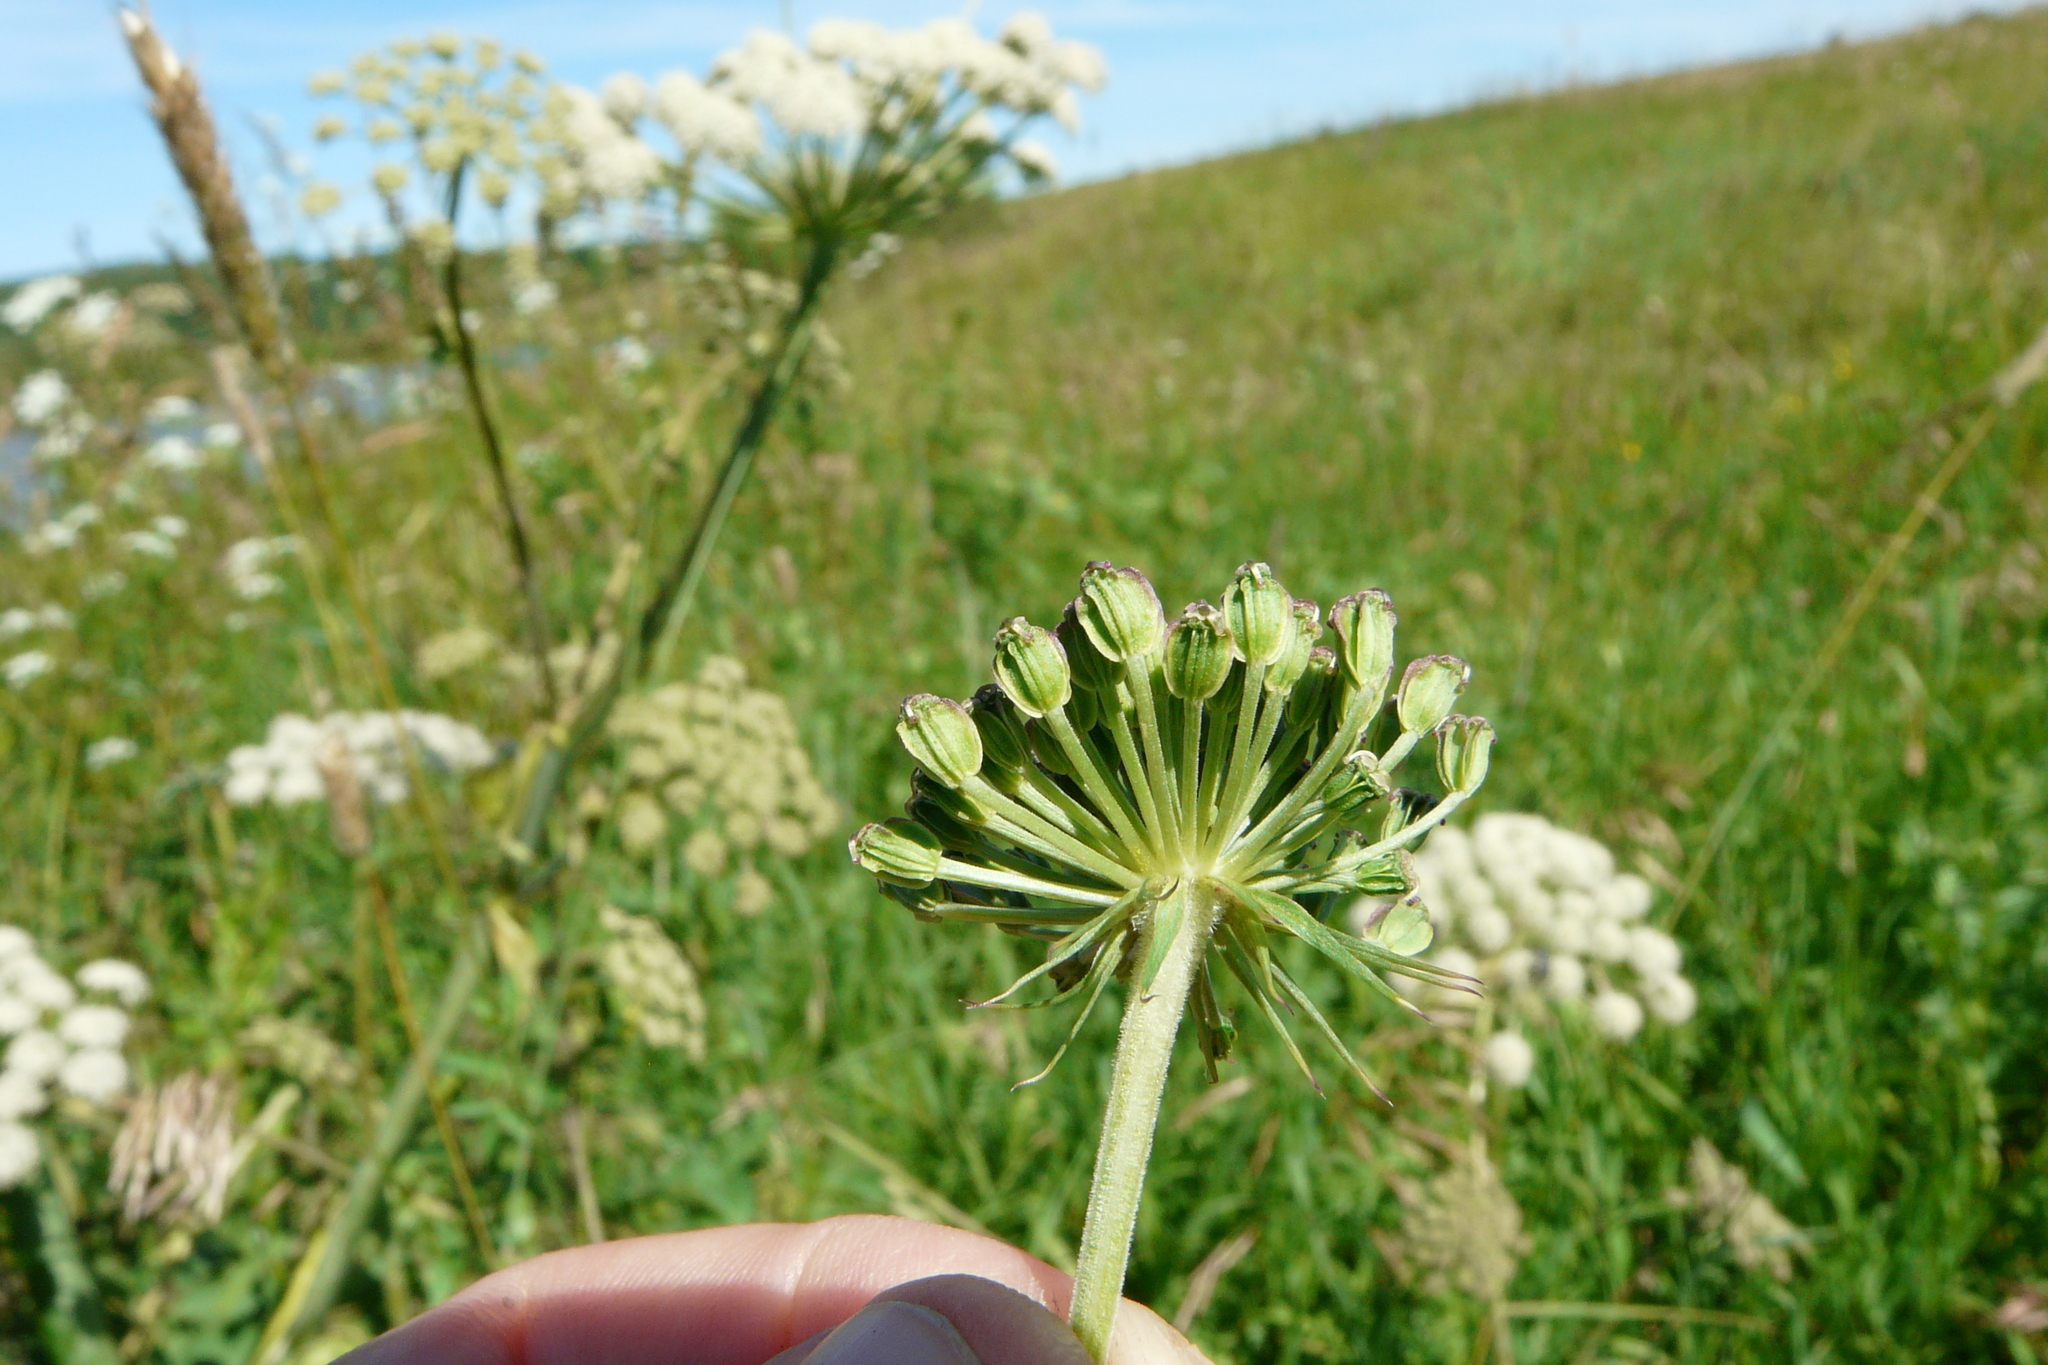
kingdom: Plantae
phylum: Tracheophyta
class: Magnoliopsida
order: Apiales
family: Apiaceae
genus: Angelica
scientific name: Angelica sylvestris
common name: Wild angelica
